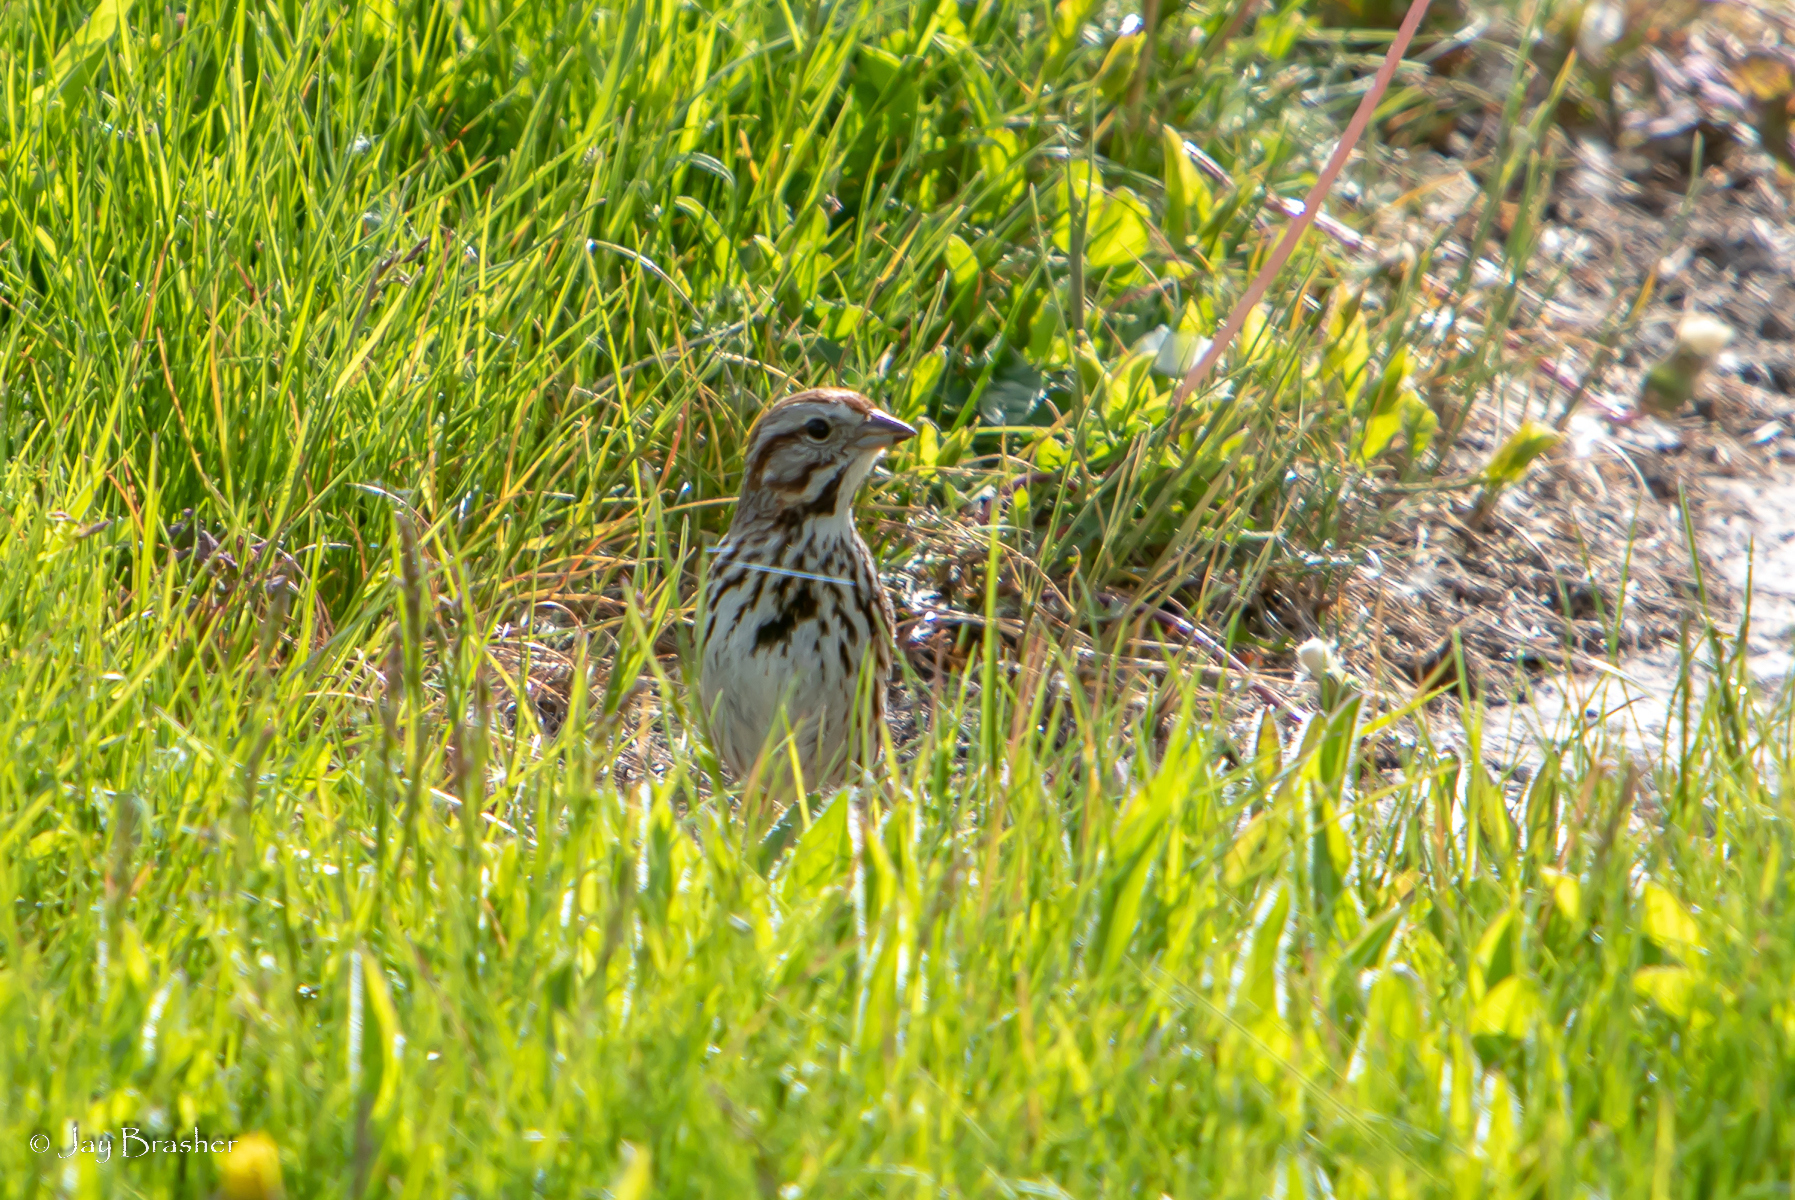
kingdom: Animalia
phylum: Chordata
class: Aves
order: Passeriformes
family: Passerellidae
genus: Melospiza
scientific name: Melospiza melodia
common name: Song sparrow
